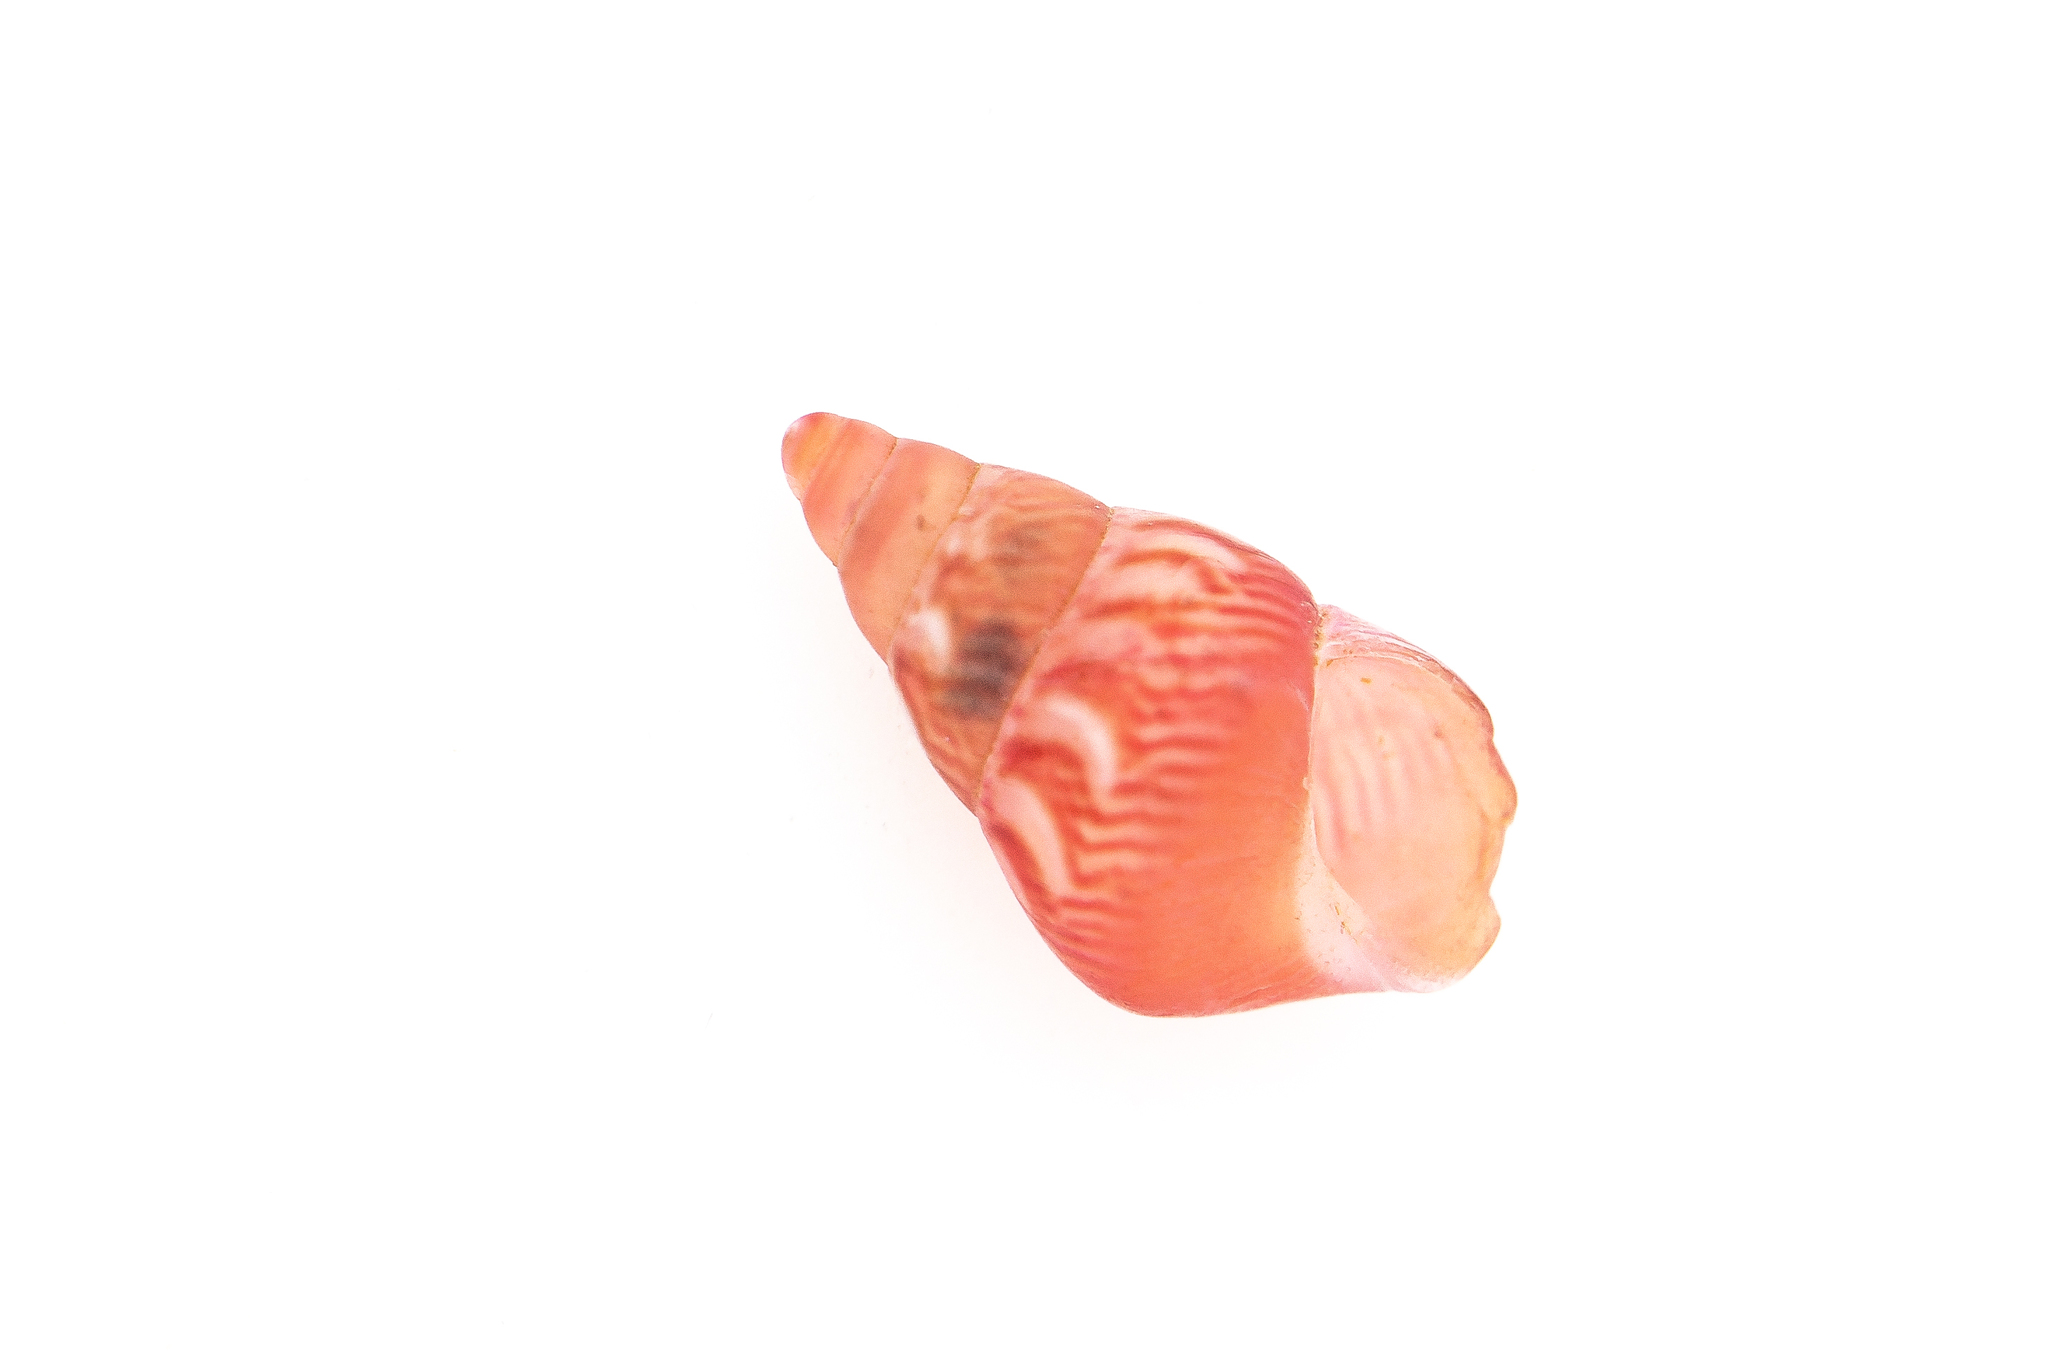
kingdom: Animalia
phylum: Mollusca
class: Gastropoda
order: Littorinimorpha
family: Eatoniellidae
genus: Eatoniella
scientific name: Eatoniella flammulata
